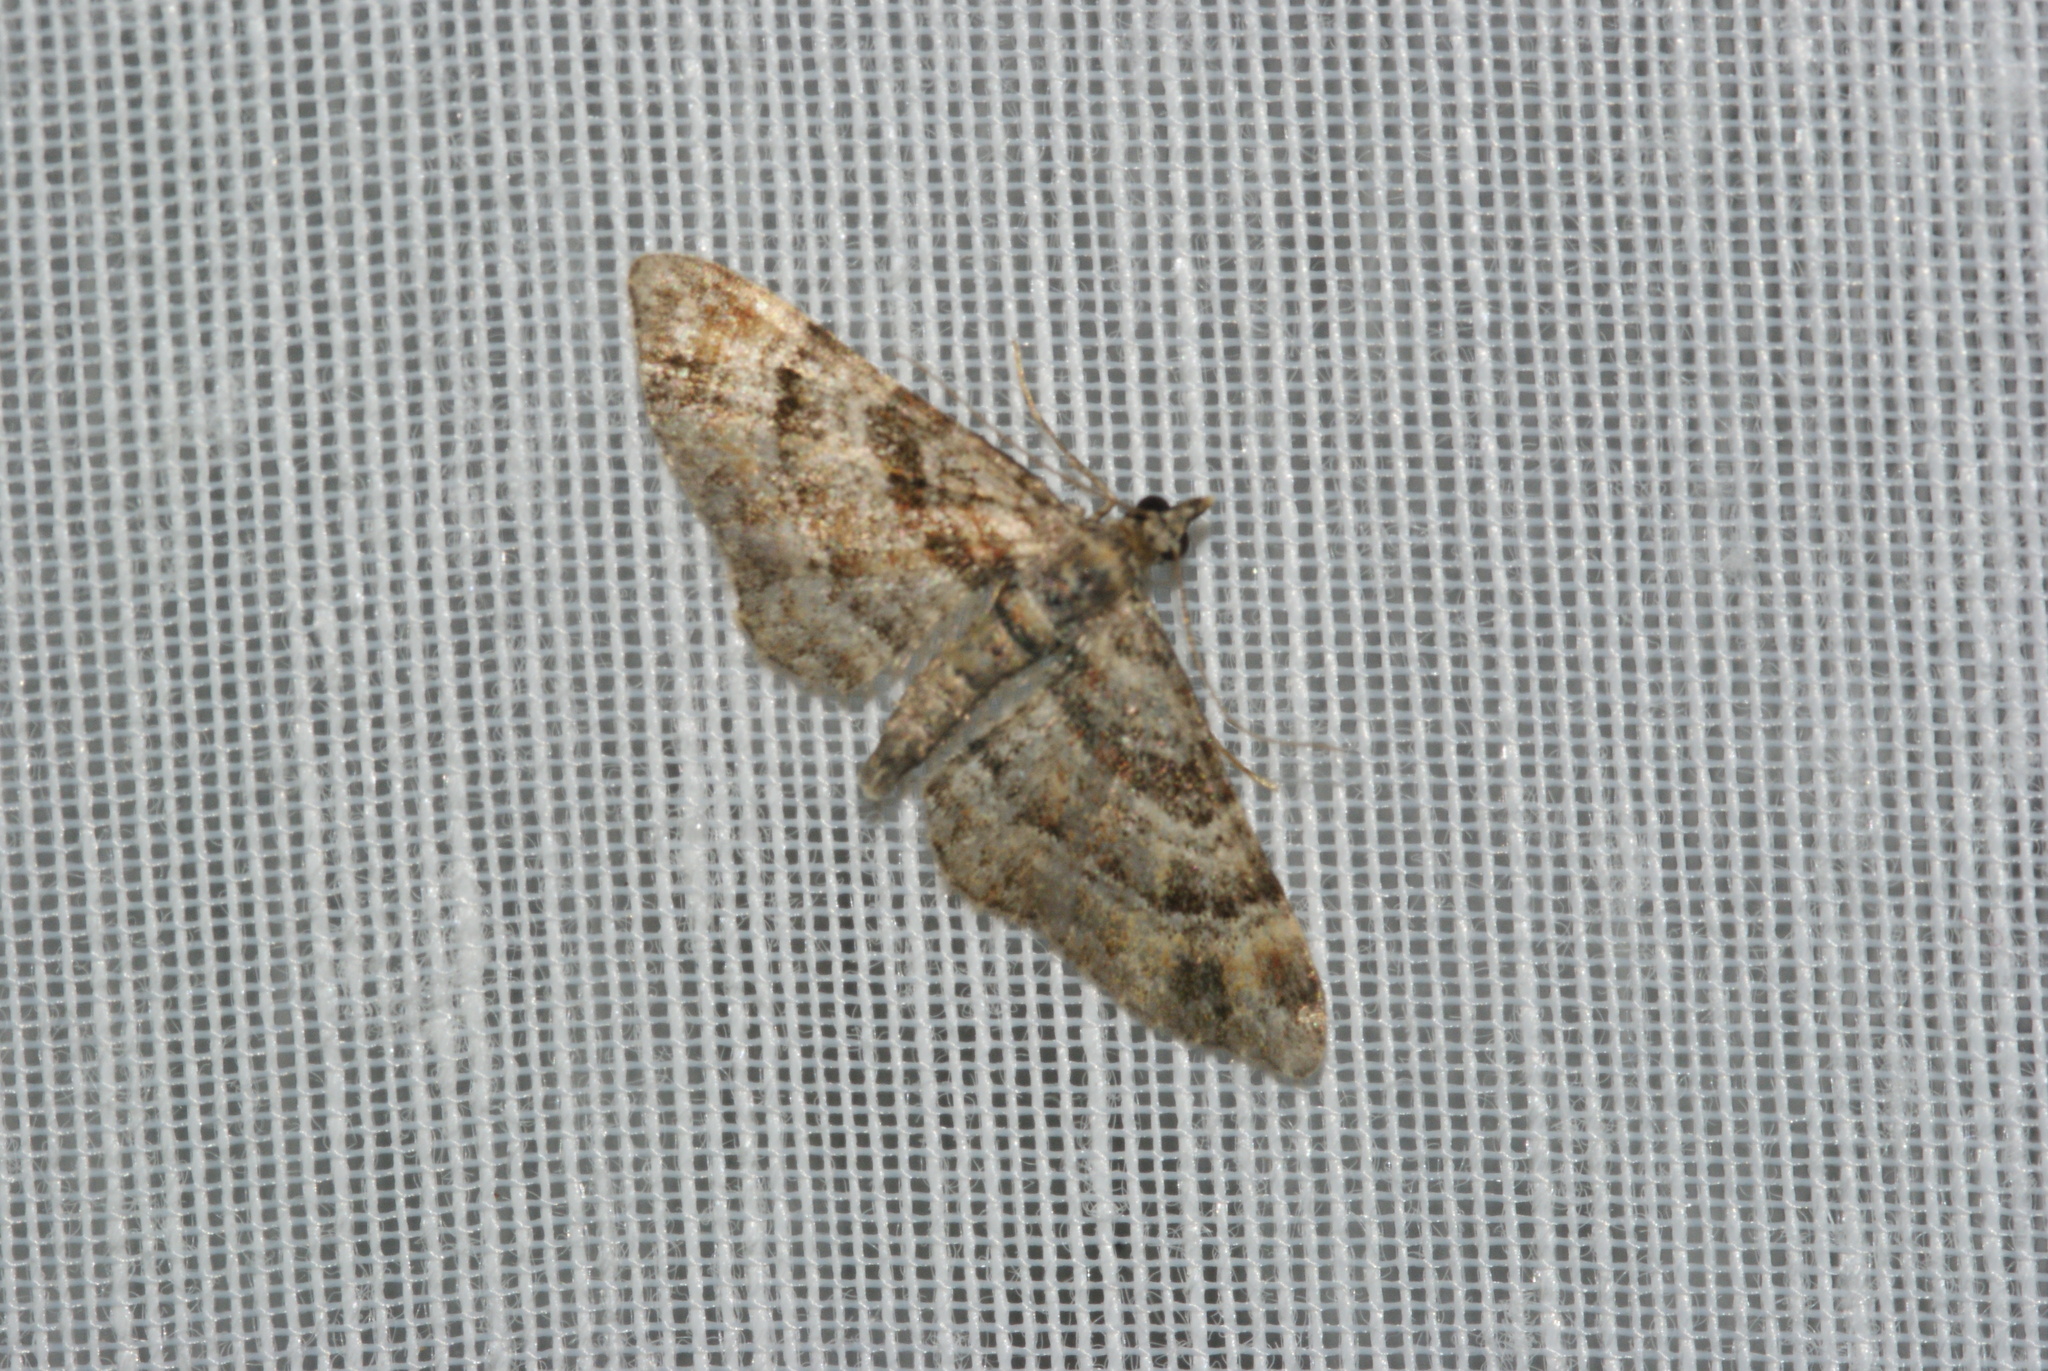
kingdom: Animalia
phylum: Arthropoda
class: Insecta
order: Lepidoptera
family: Geometridae
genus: Gymnoscelis
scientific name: Gymnoscelis rufifasciata
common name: Double-striped pug
